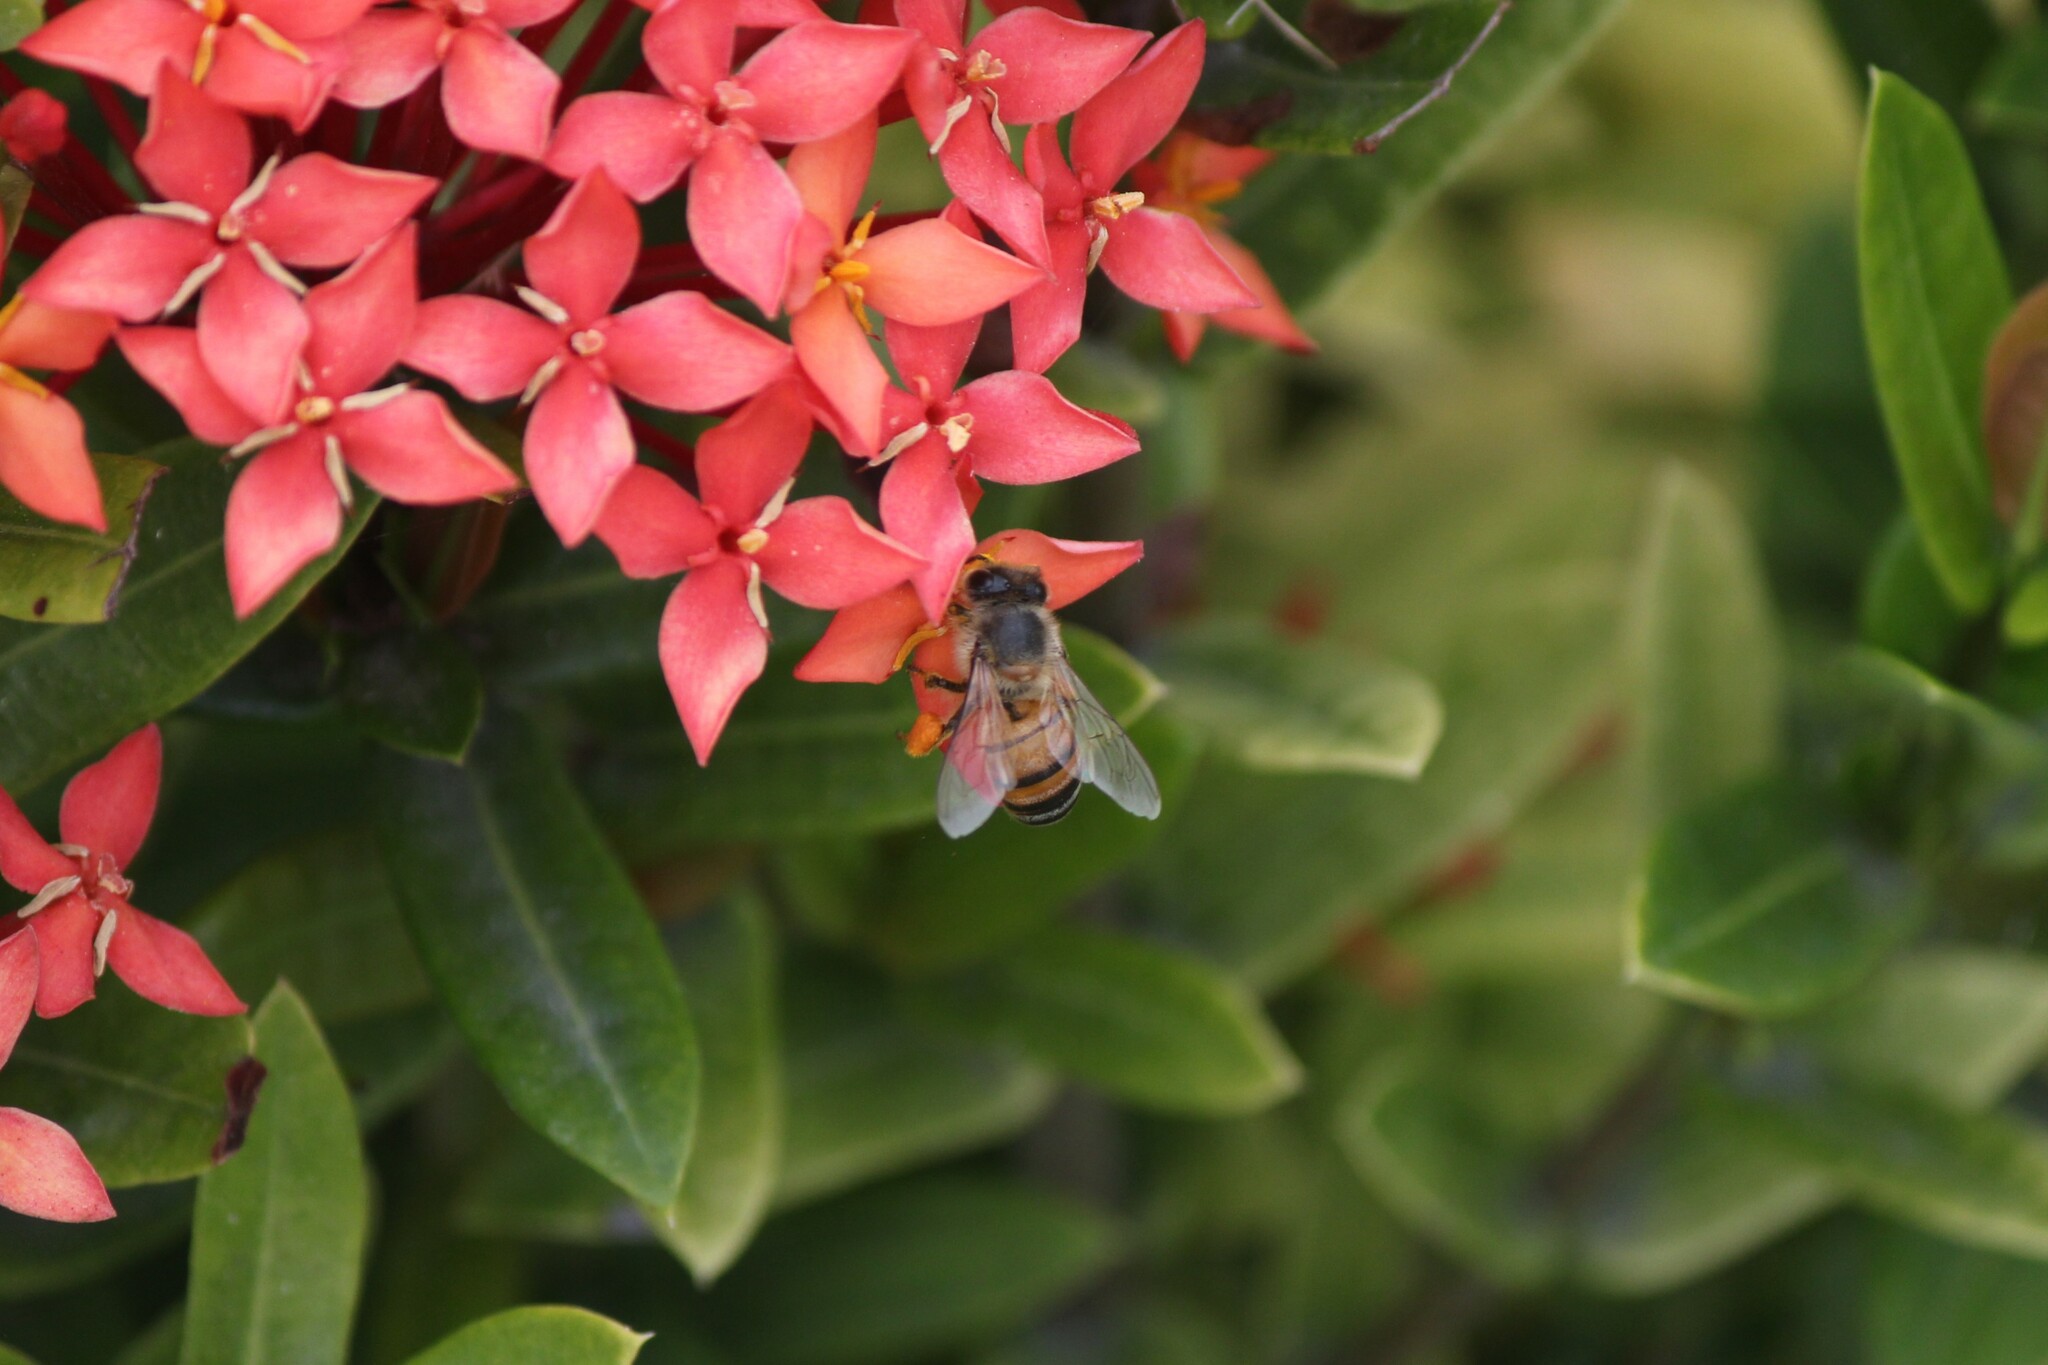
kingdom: Animalia
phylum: Arthropoda
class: Insecta
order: Hymenoptera
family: Apidae
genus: Apis
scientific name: Apis mellifera
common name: Honey bee
